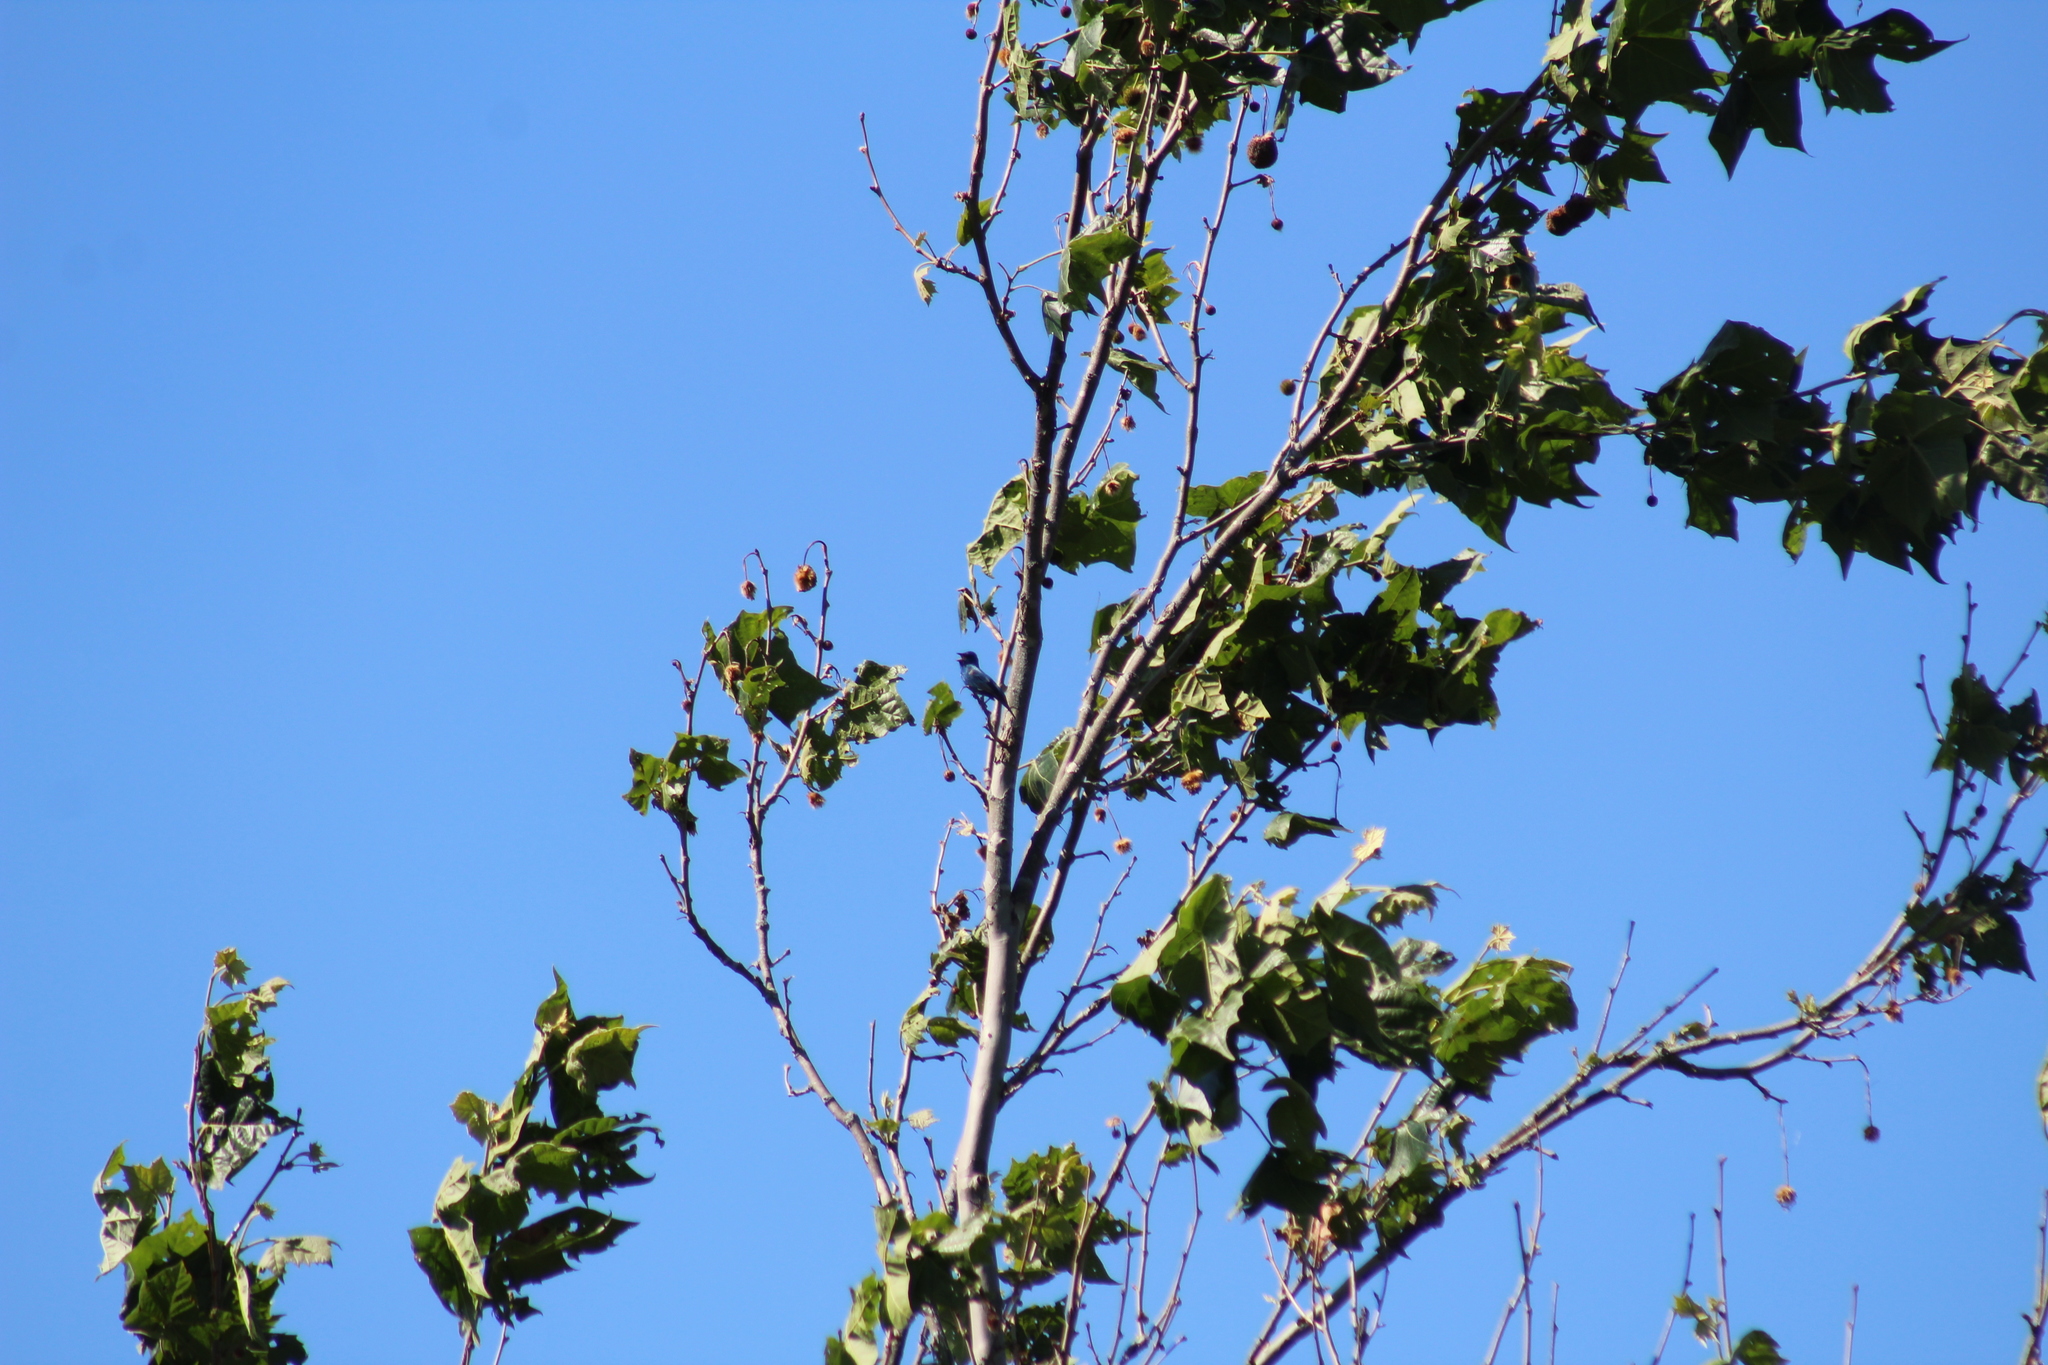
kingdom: Animalia
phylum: Chordata
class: Aves
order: Passeriformes
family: Cardinalidae
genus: Passerina
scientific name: Passerina cyanea
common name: Indigo bunting
